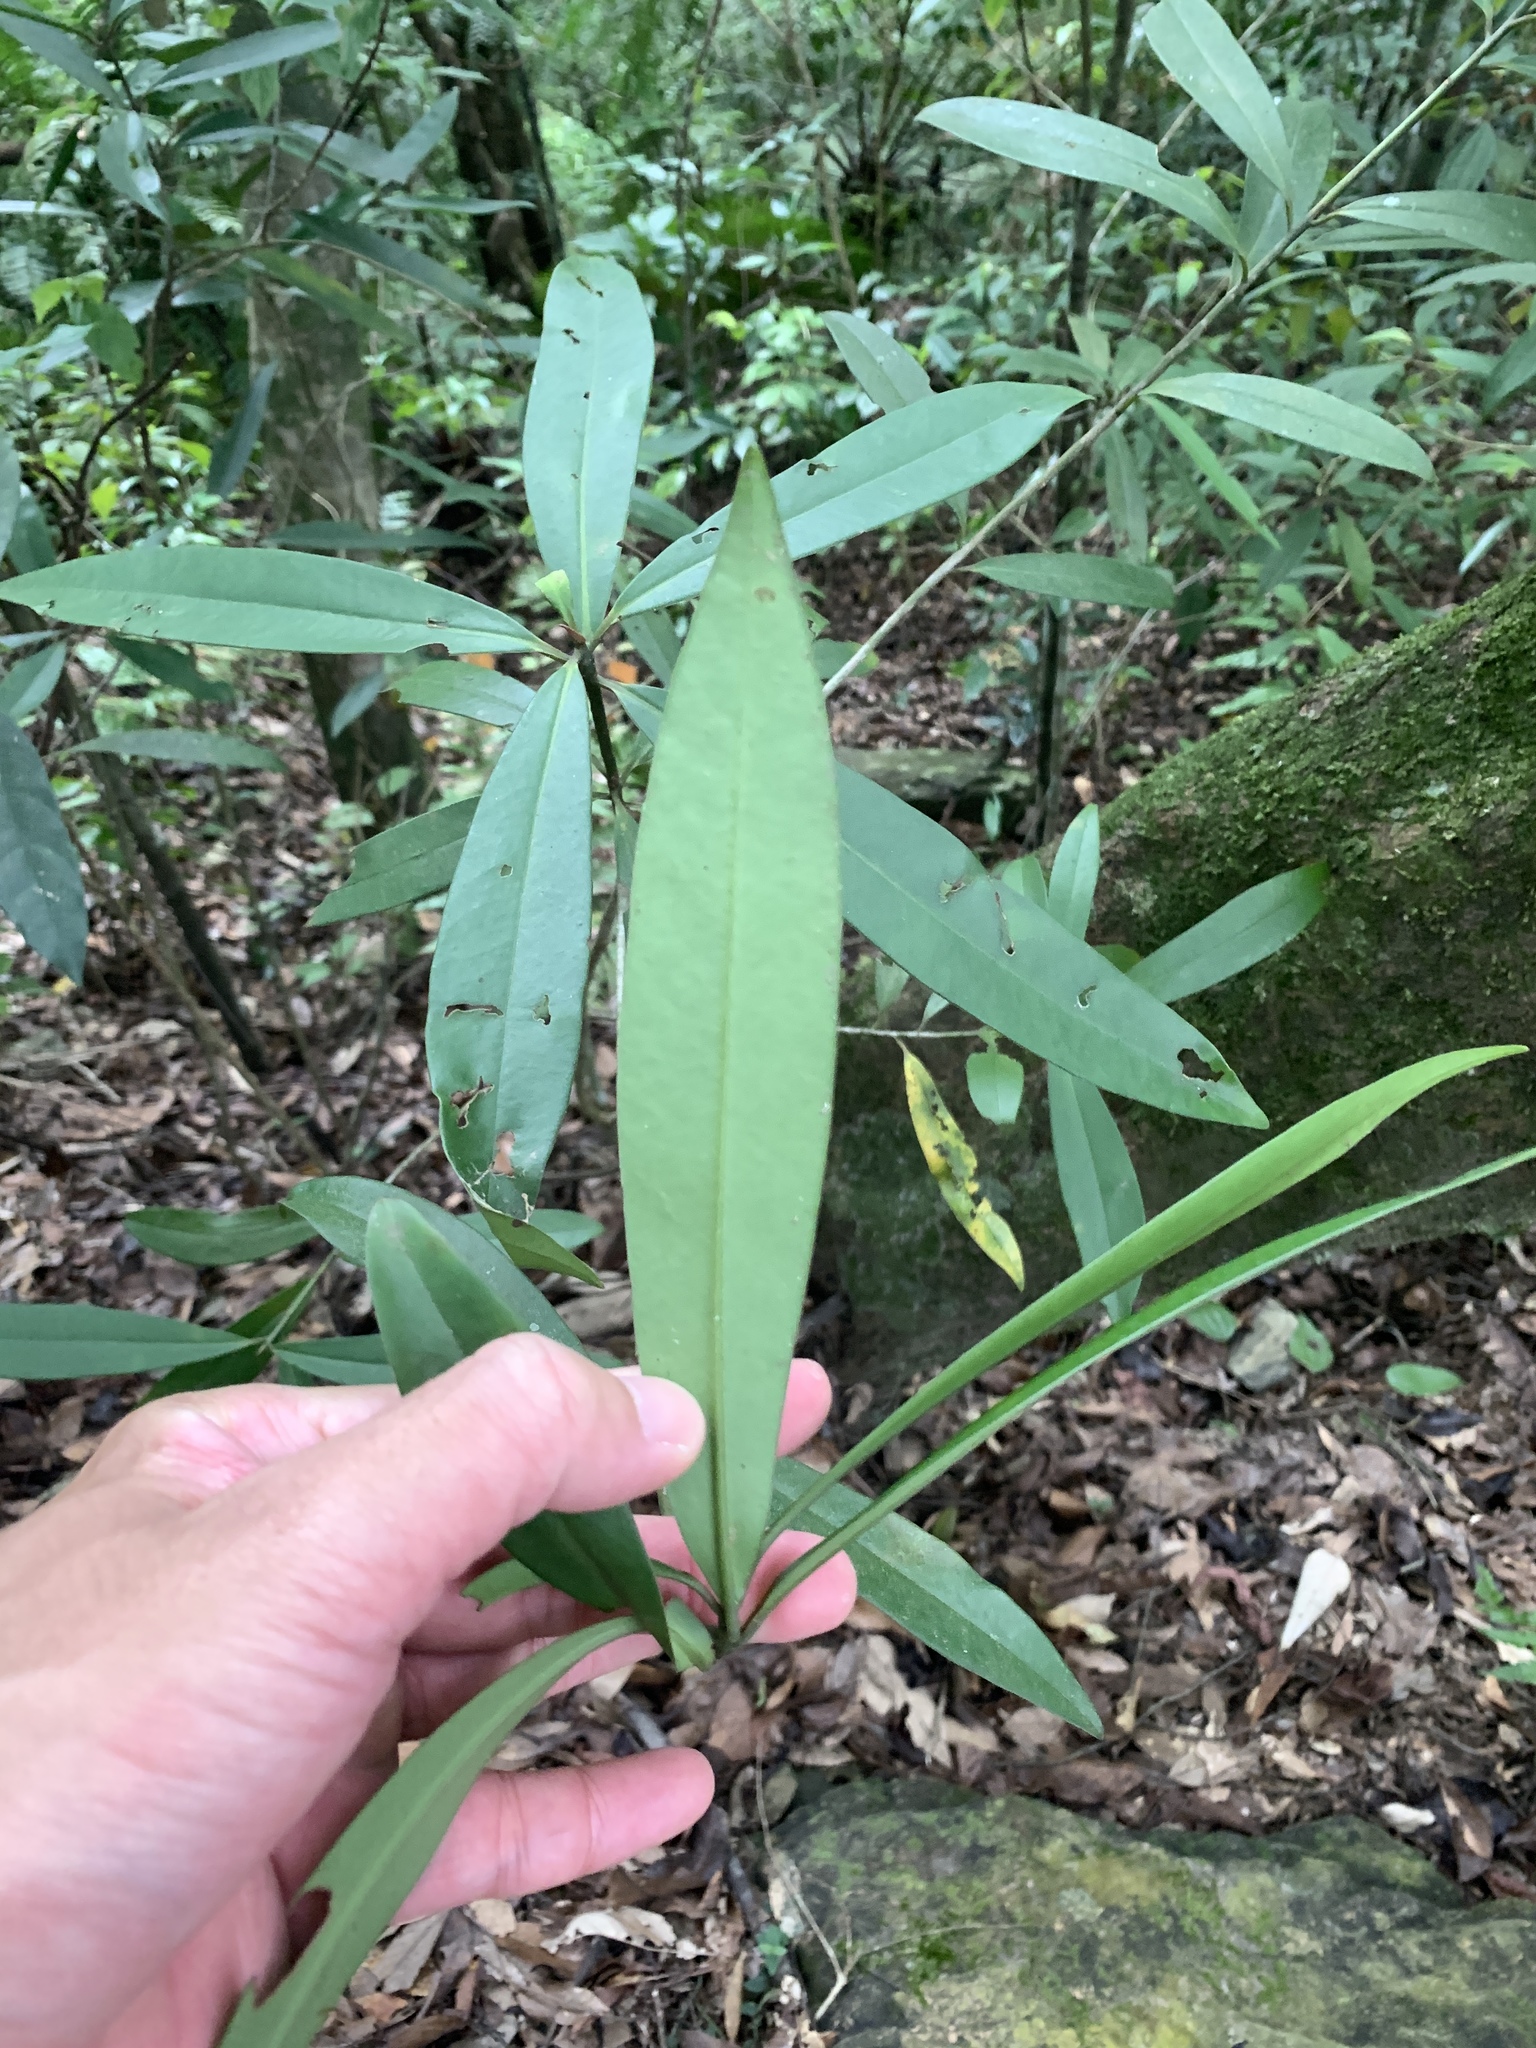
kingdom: Plantae
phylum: Tracheophyta
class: Magnoliopsida
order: Ericales
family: Primulaceae
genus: Myrsine
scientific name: Myrsine seguinii
